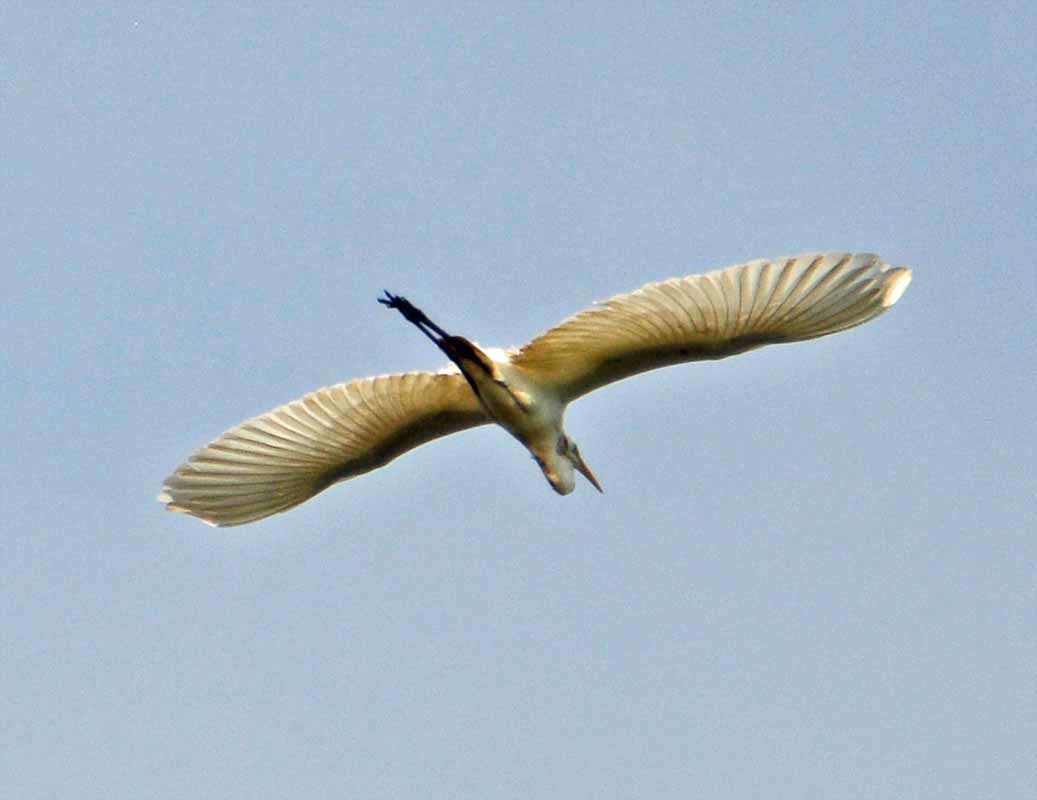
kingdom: Animalia
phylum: Chordata
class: Aves
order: Pelecaniformes
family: Ardeidae
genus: Ardea
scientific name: Ardea alba
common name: Great egret
